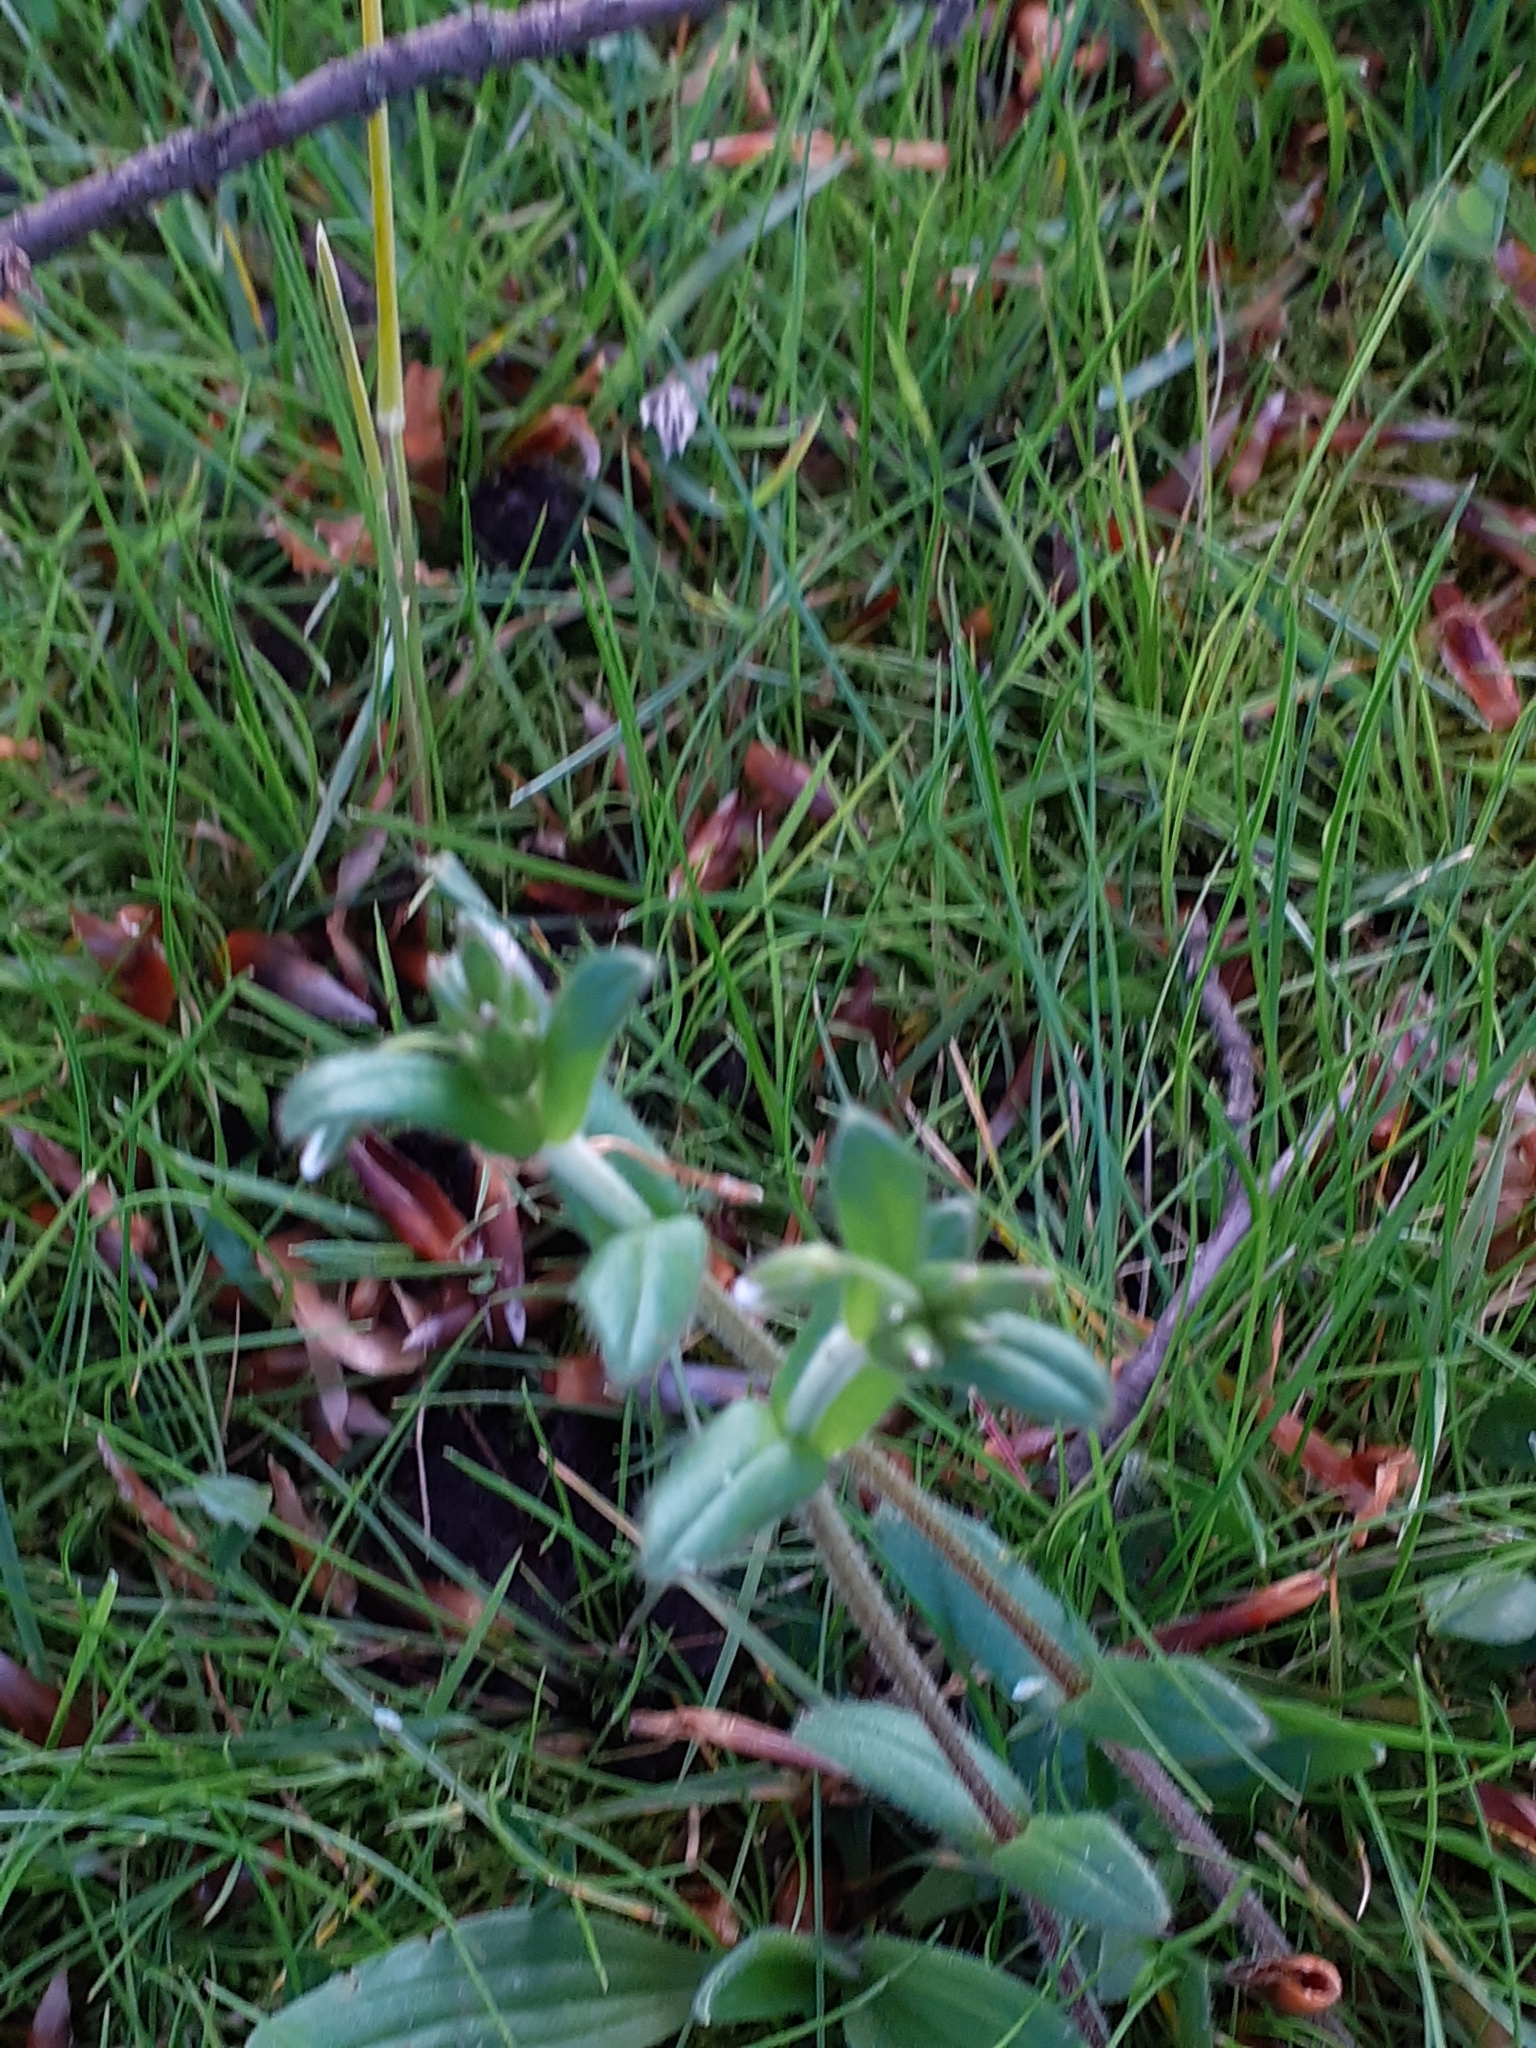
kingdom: Plantae
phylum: Tracheophyta
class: Magnoliopsida
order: Caryophyllales
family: Caryophyllaceae
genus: Cerastium
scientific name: Cerastium fontanum
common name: Common mouse-ear
